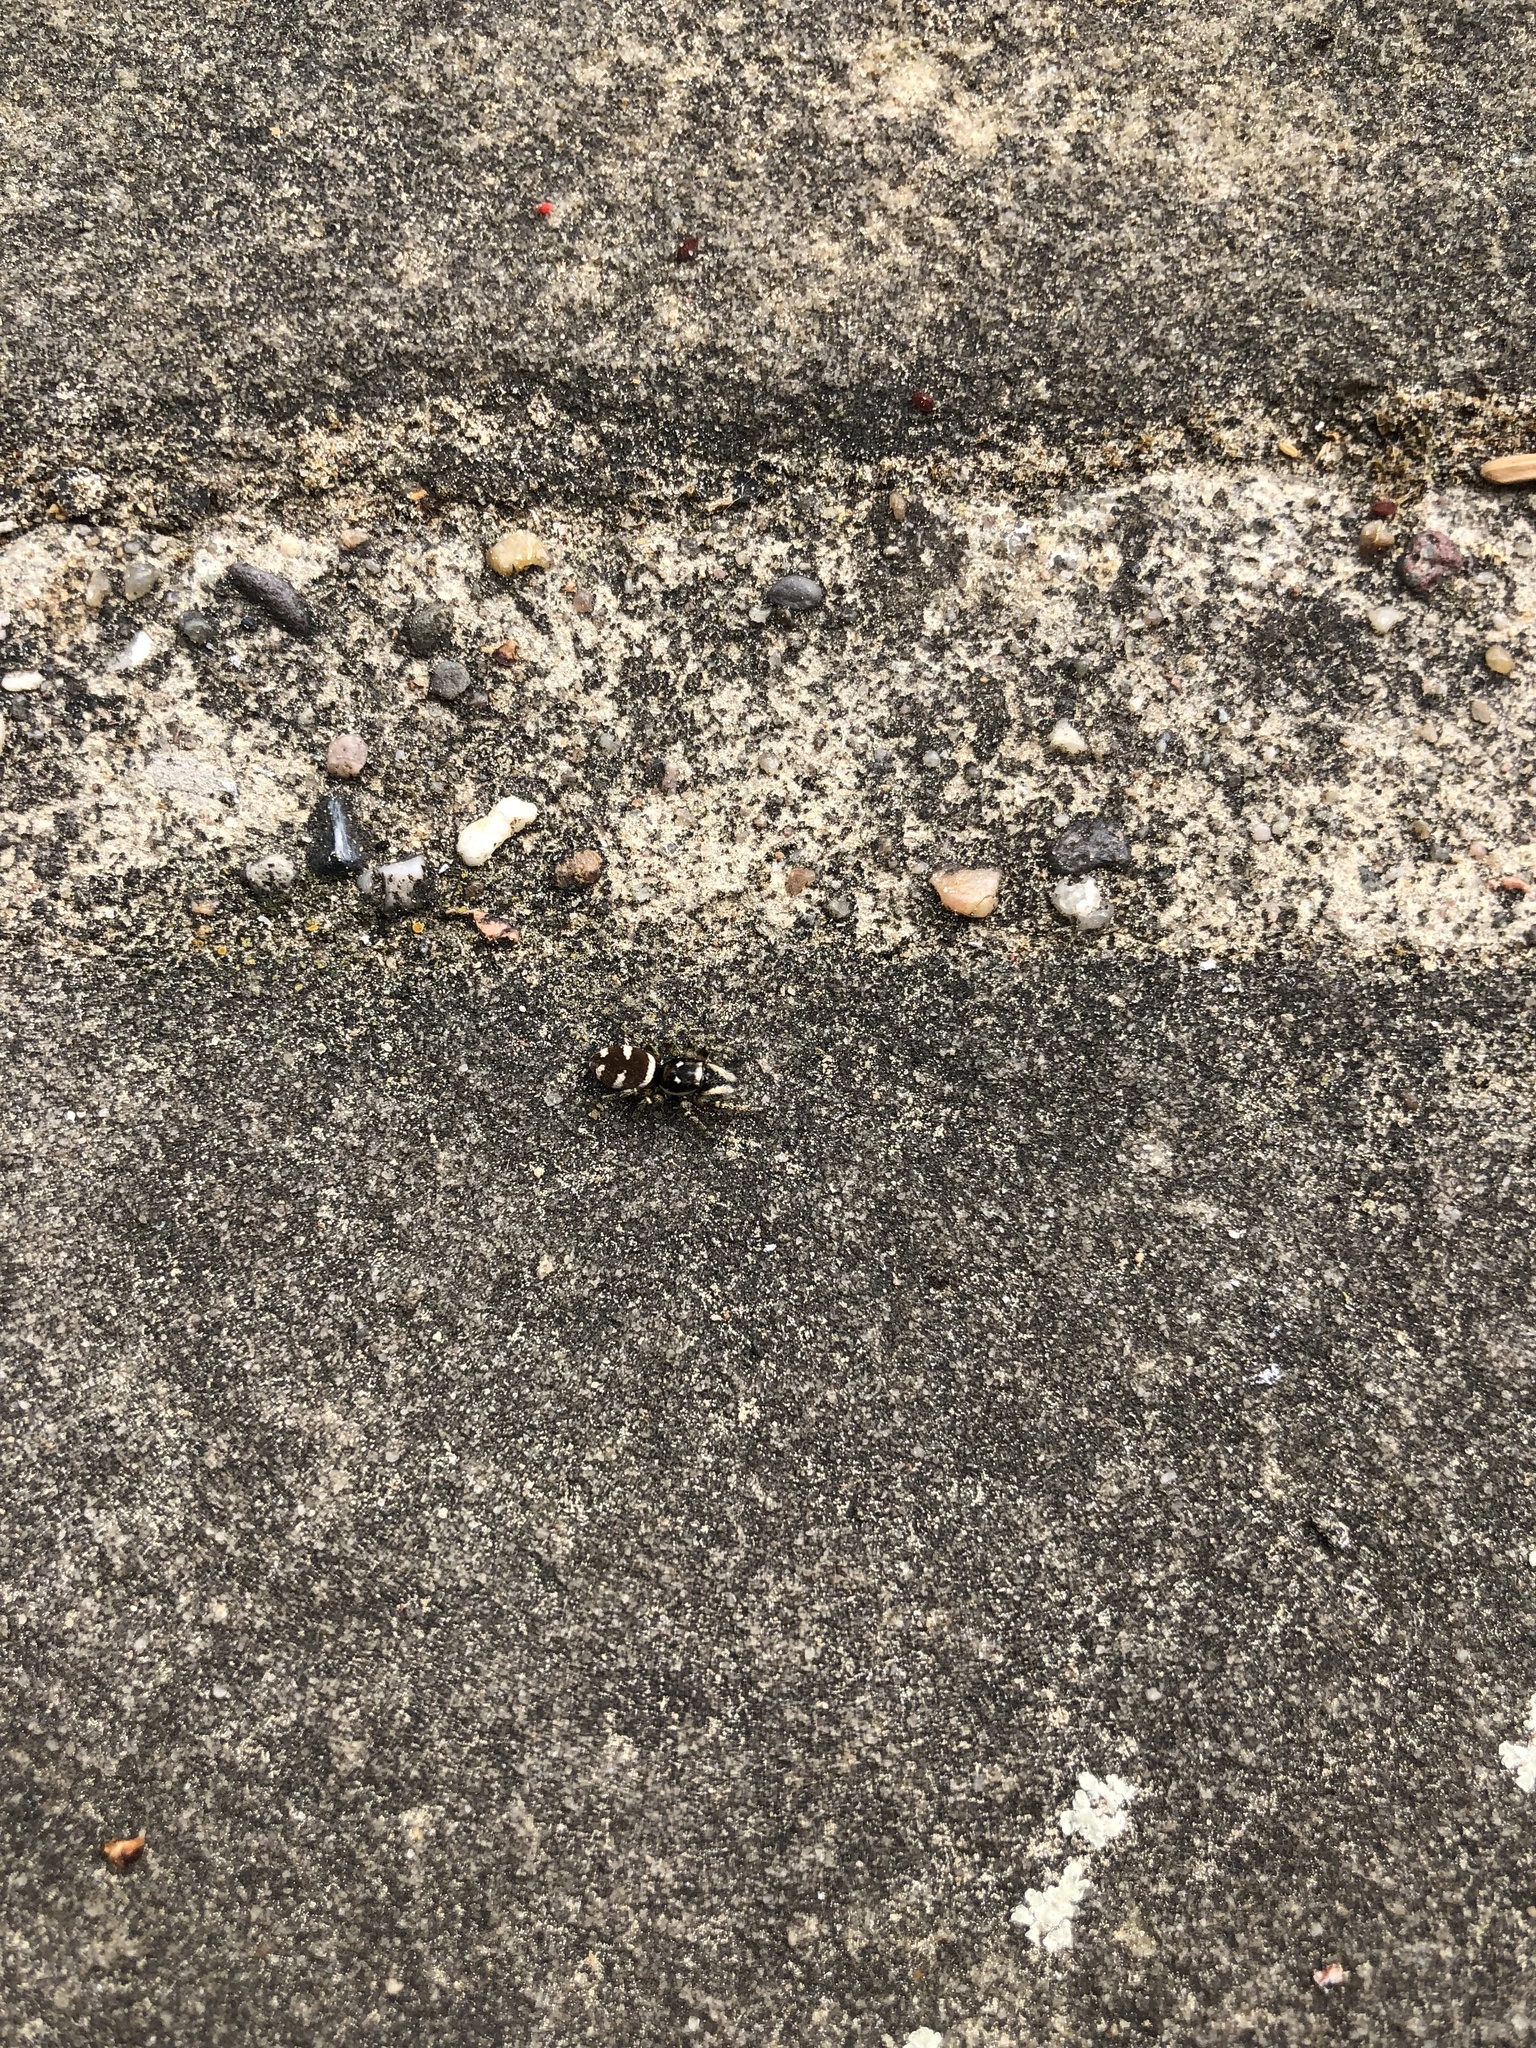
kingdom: Animalia
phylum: Arthropoda
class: Arachnida
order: Araneae
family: Salticidae
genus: Salticus
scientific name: Salticus scenicus
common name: Zebra jumper
